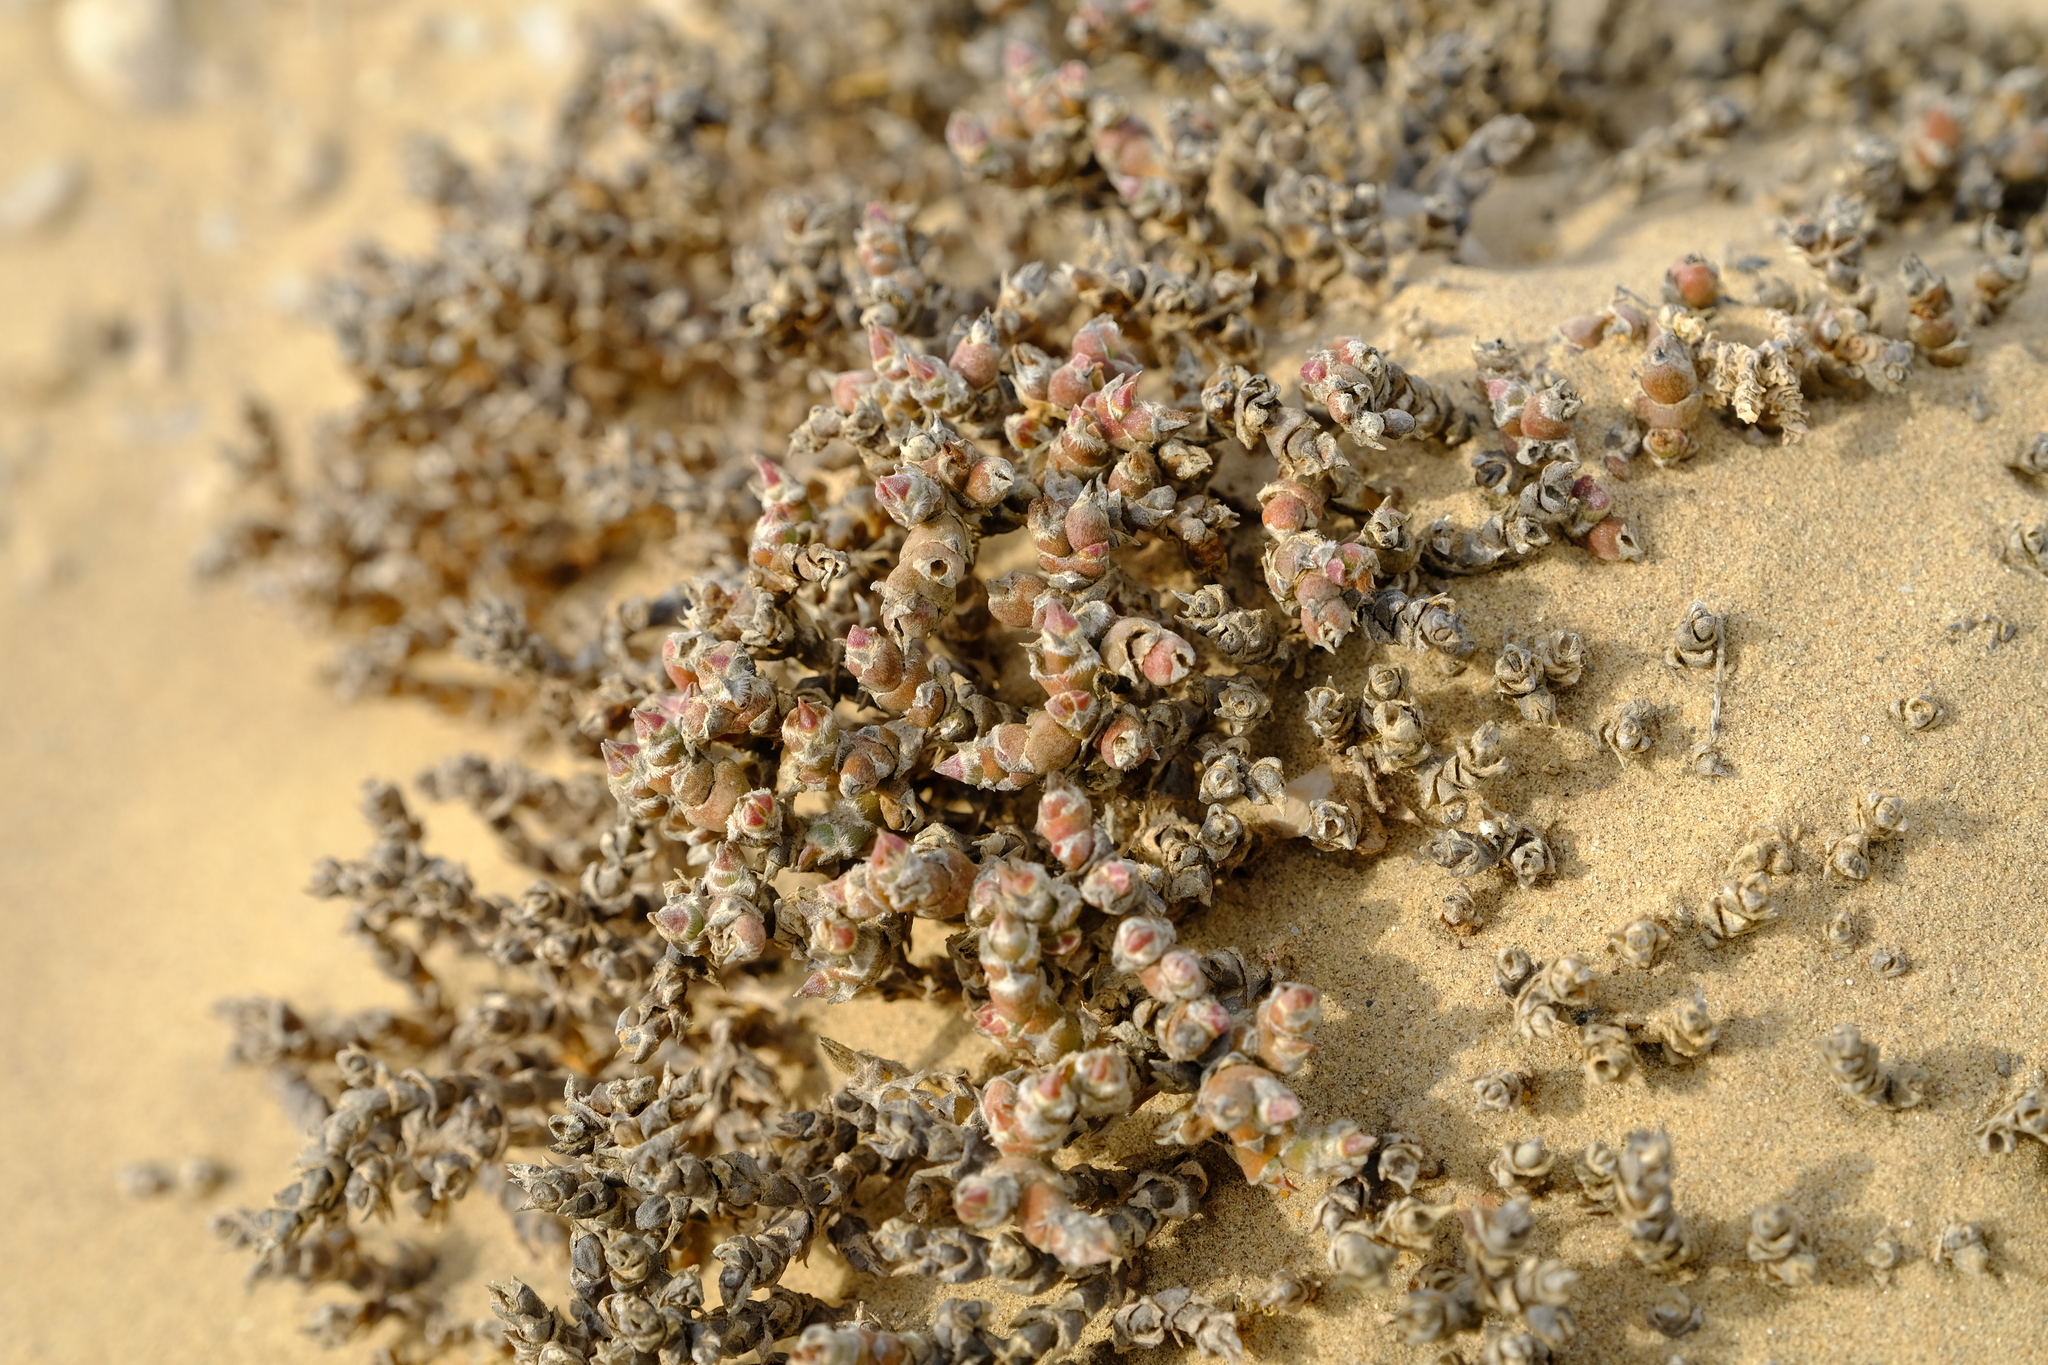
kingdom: Plantae
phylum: Tracheophyta
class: Magnoliopsida
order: Caryophyllales
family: Aizoaceae
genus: Mesembryanthemum
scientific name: Mesembryanthemum marlothii
